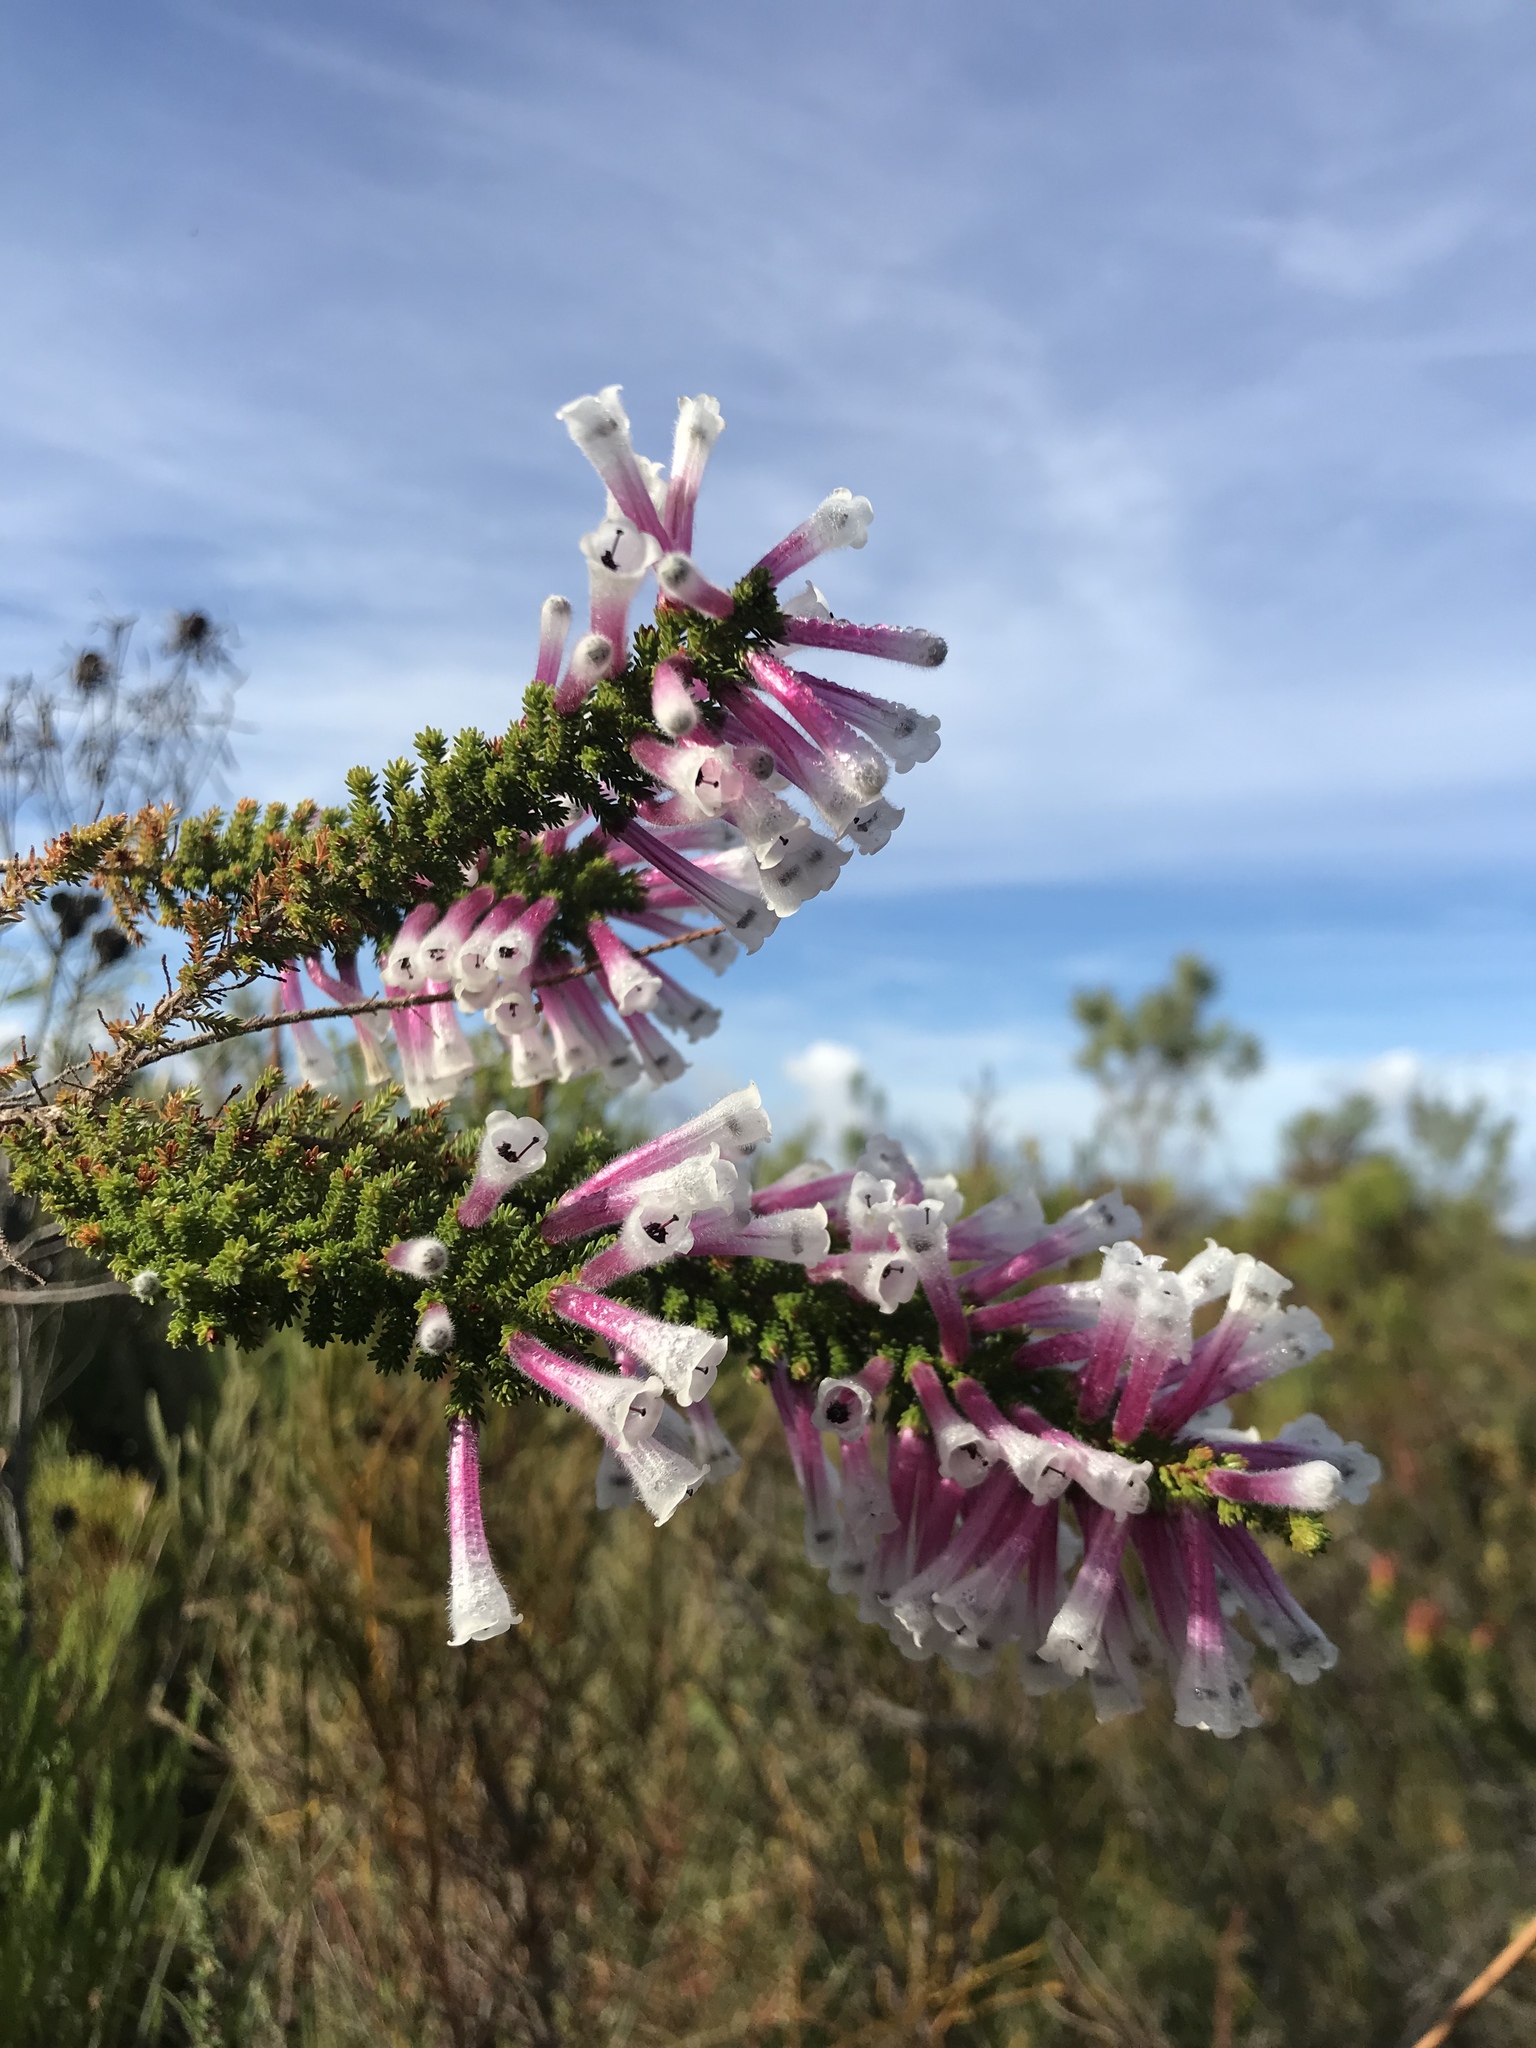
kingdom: Plantae
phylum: Tracheophyta
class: Magnoliopsida
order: Ericales
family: Ericaceae
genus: Erica
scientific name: Erica perspicua
